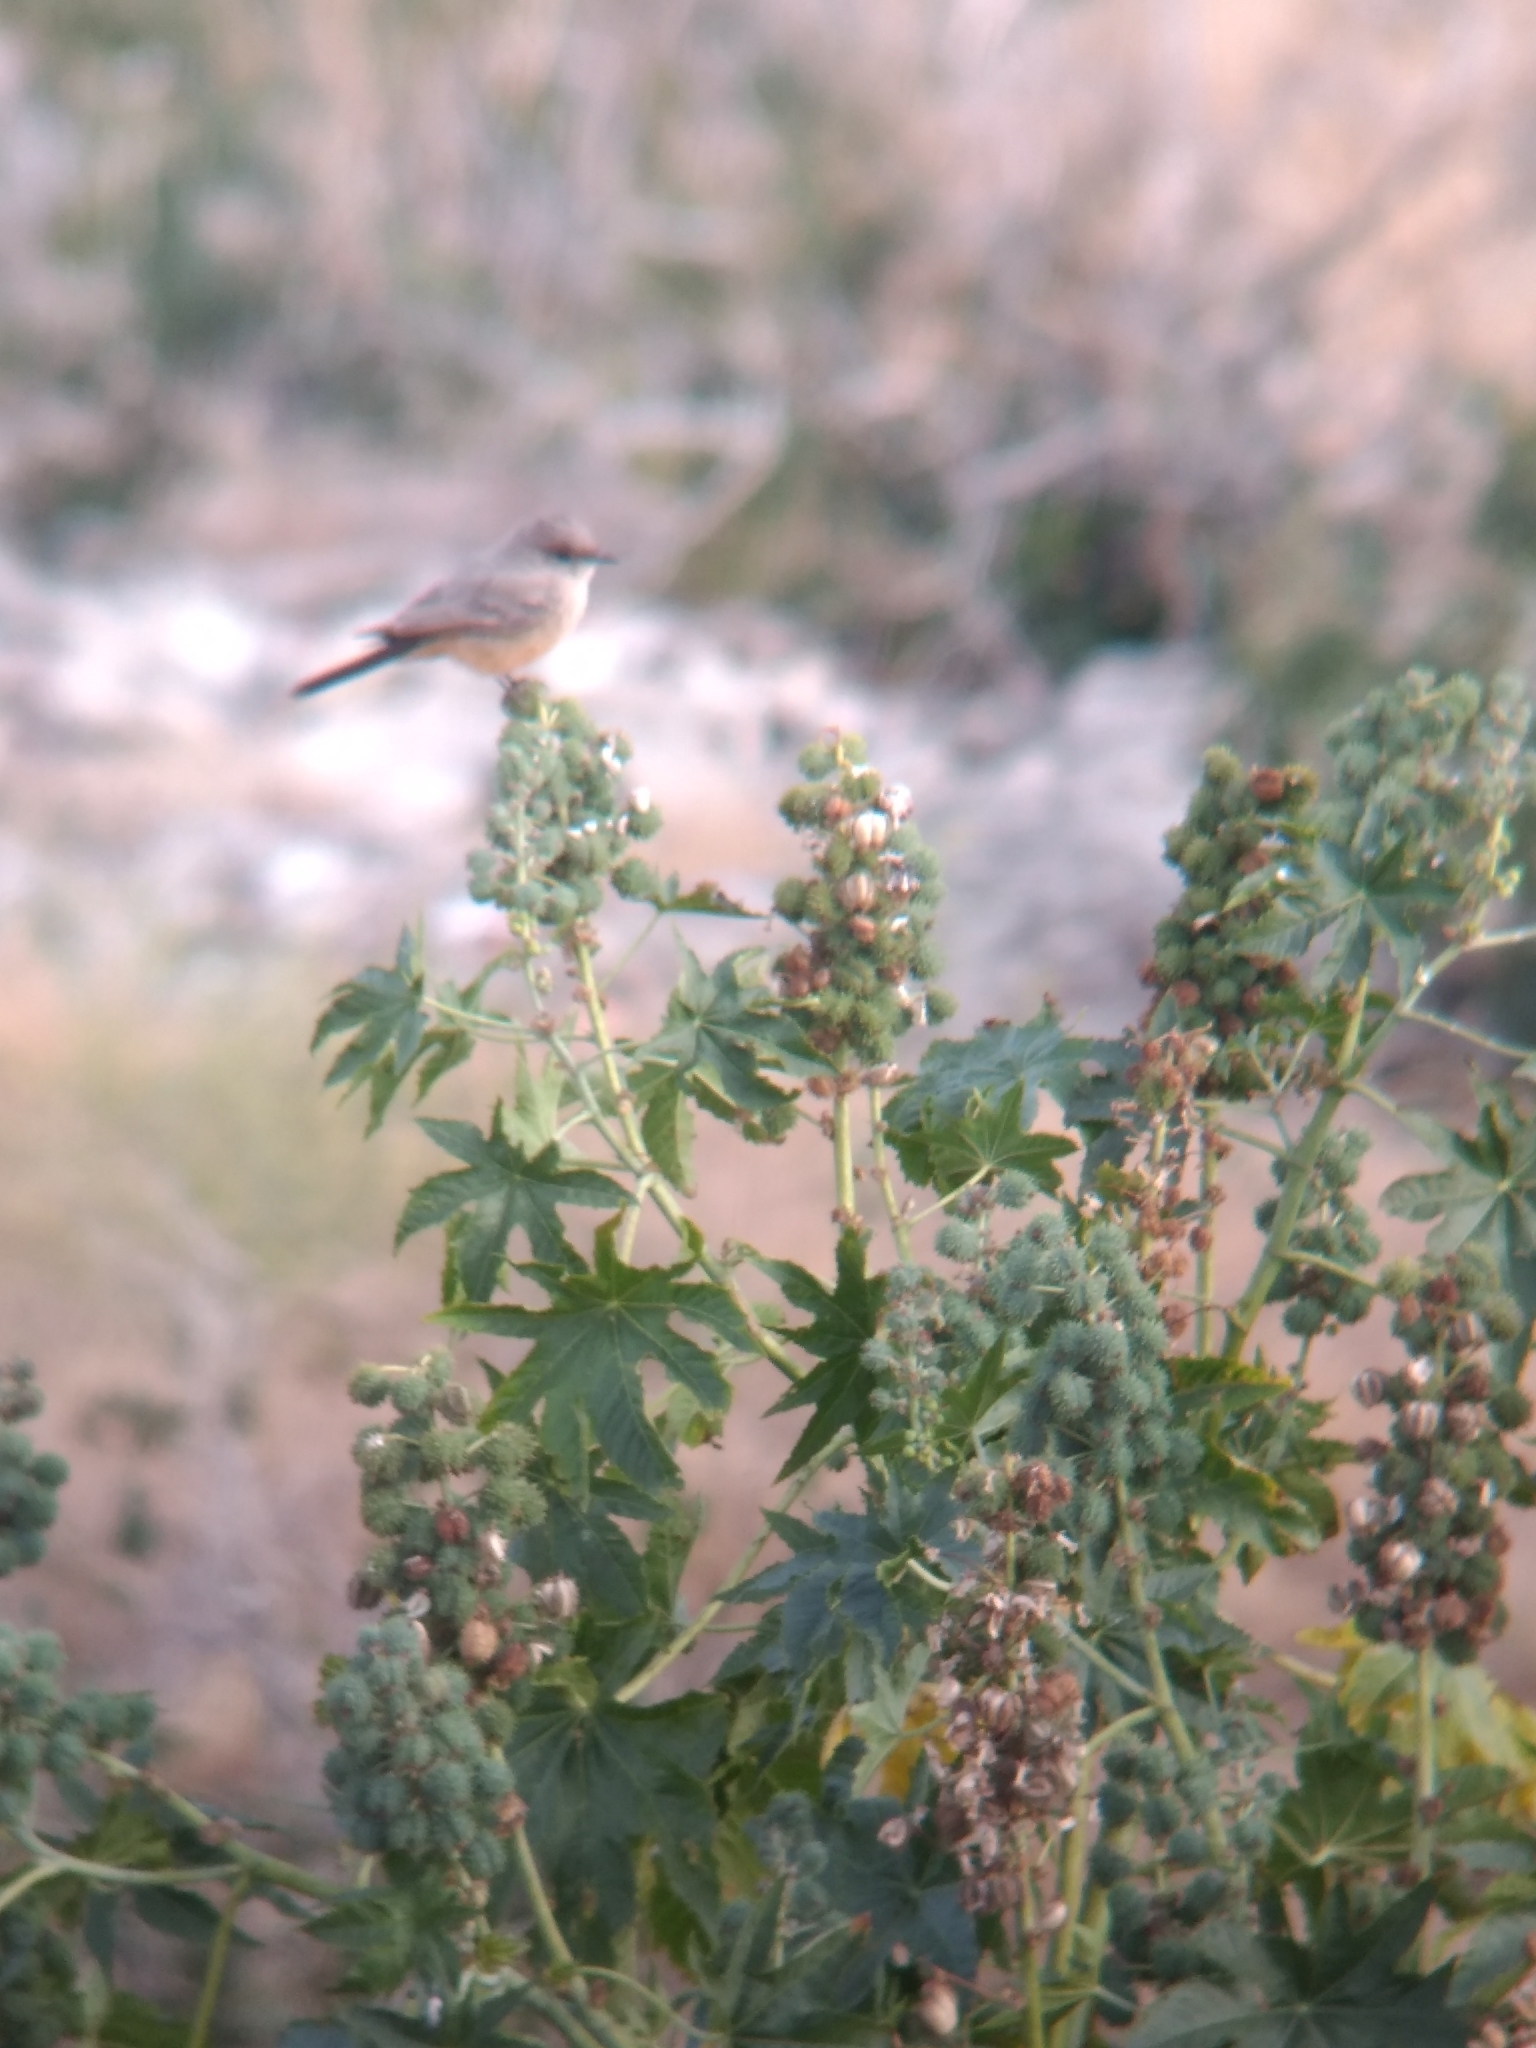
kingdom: Animalia
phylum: Chordata
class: Aves
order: Passeriformes
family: Tyrannidae
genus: Sayornis
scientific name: Sayornis saya
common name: Say's phoebe
